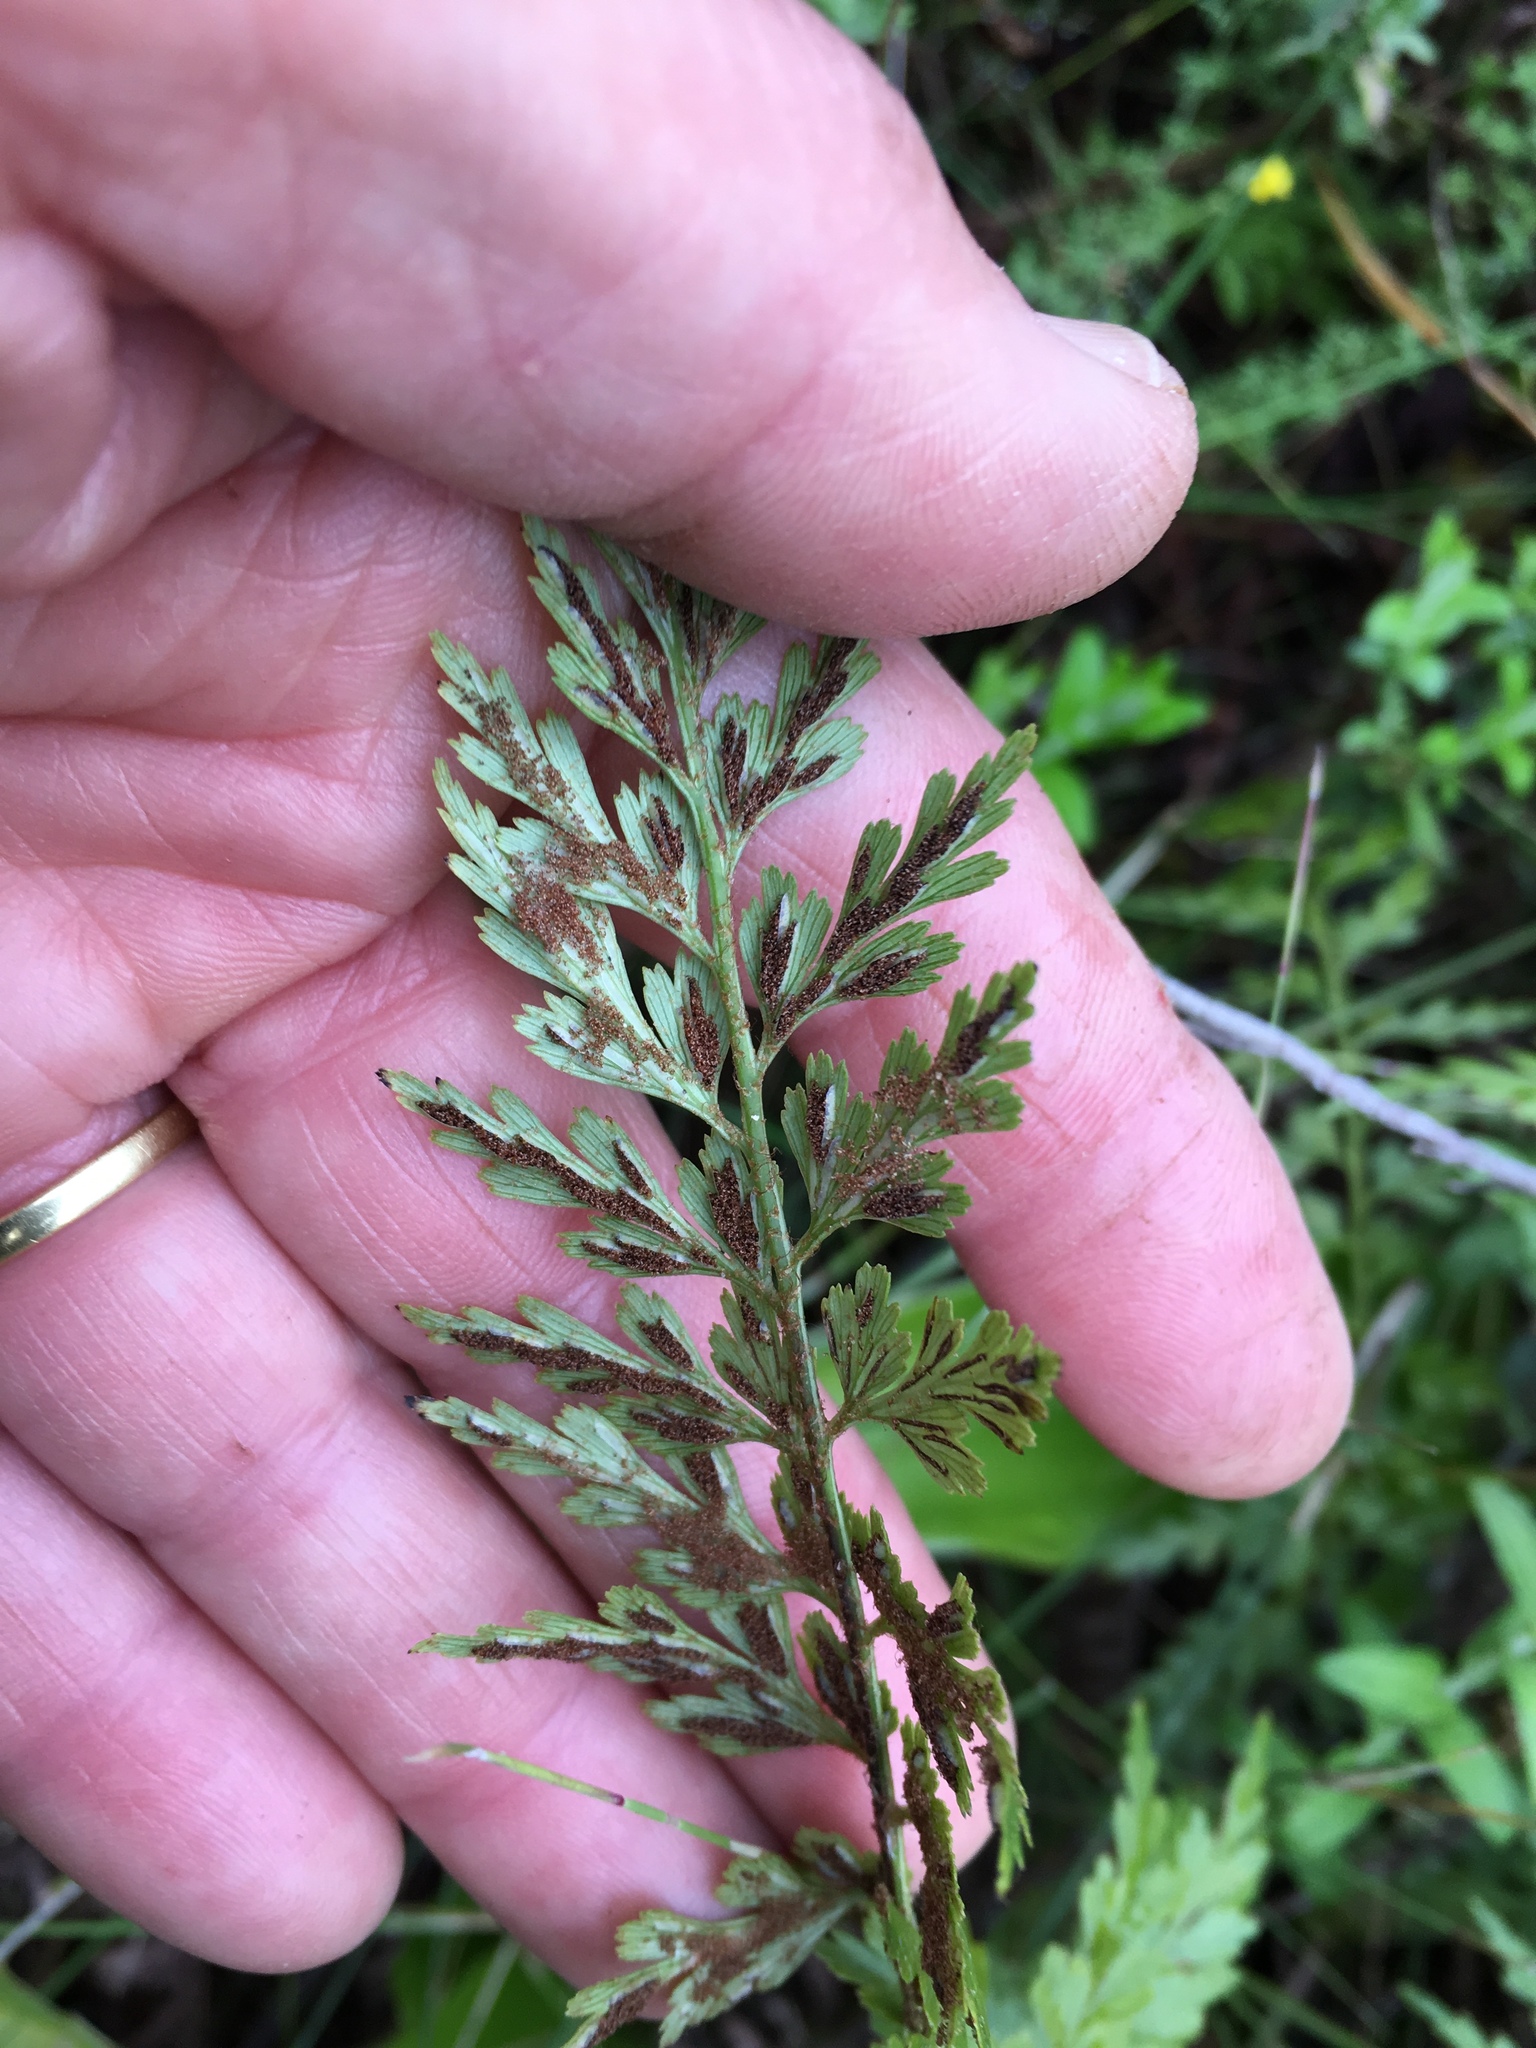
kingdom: Plantae
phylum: Tracheophyta
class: Polypodiopsida
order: Polypodiales
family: Aspleniaceae
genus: Asplenium
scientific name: Asplenium aethiopicum
